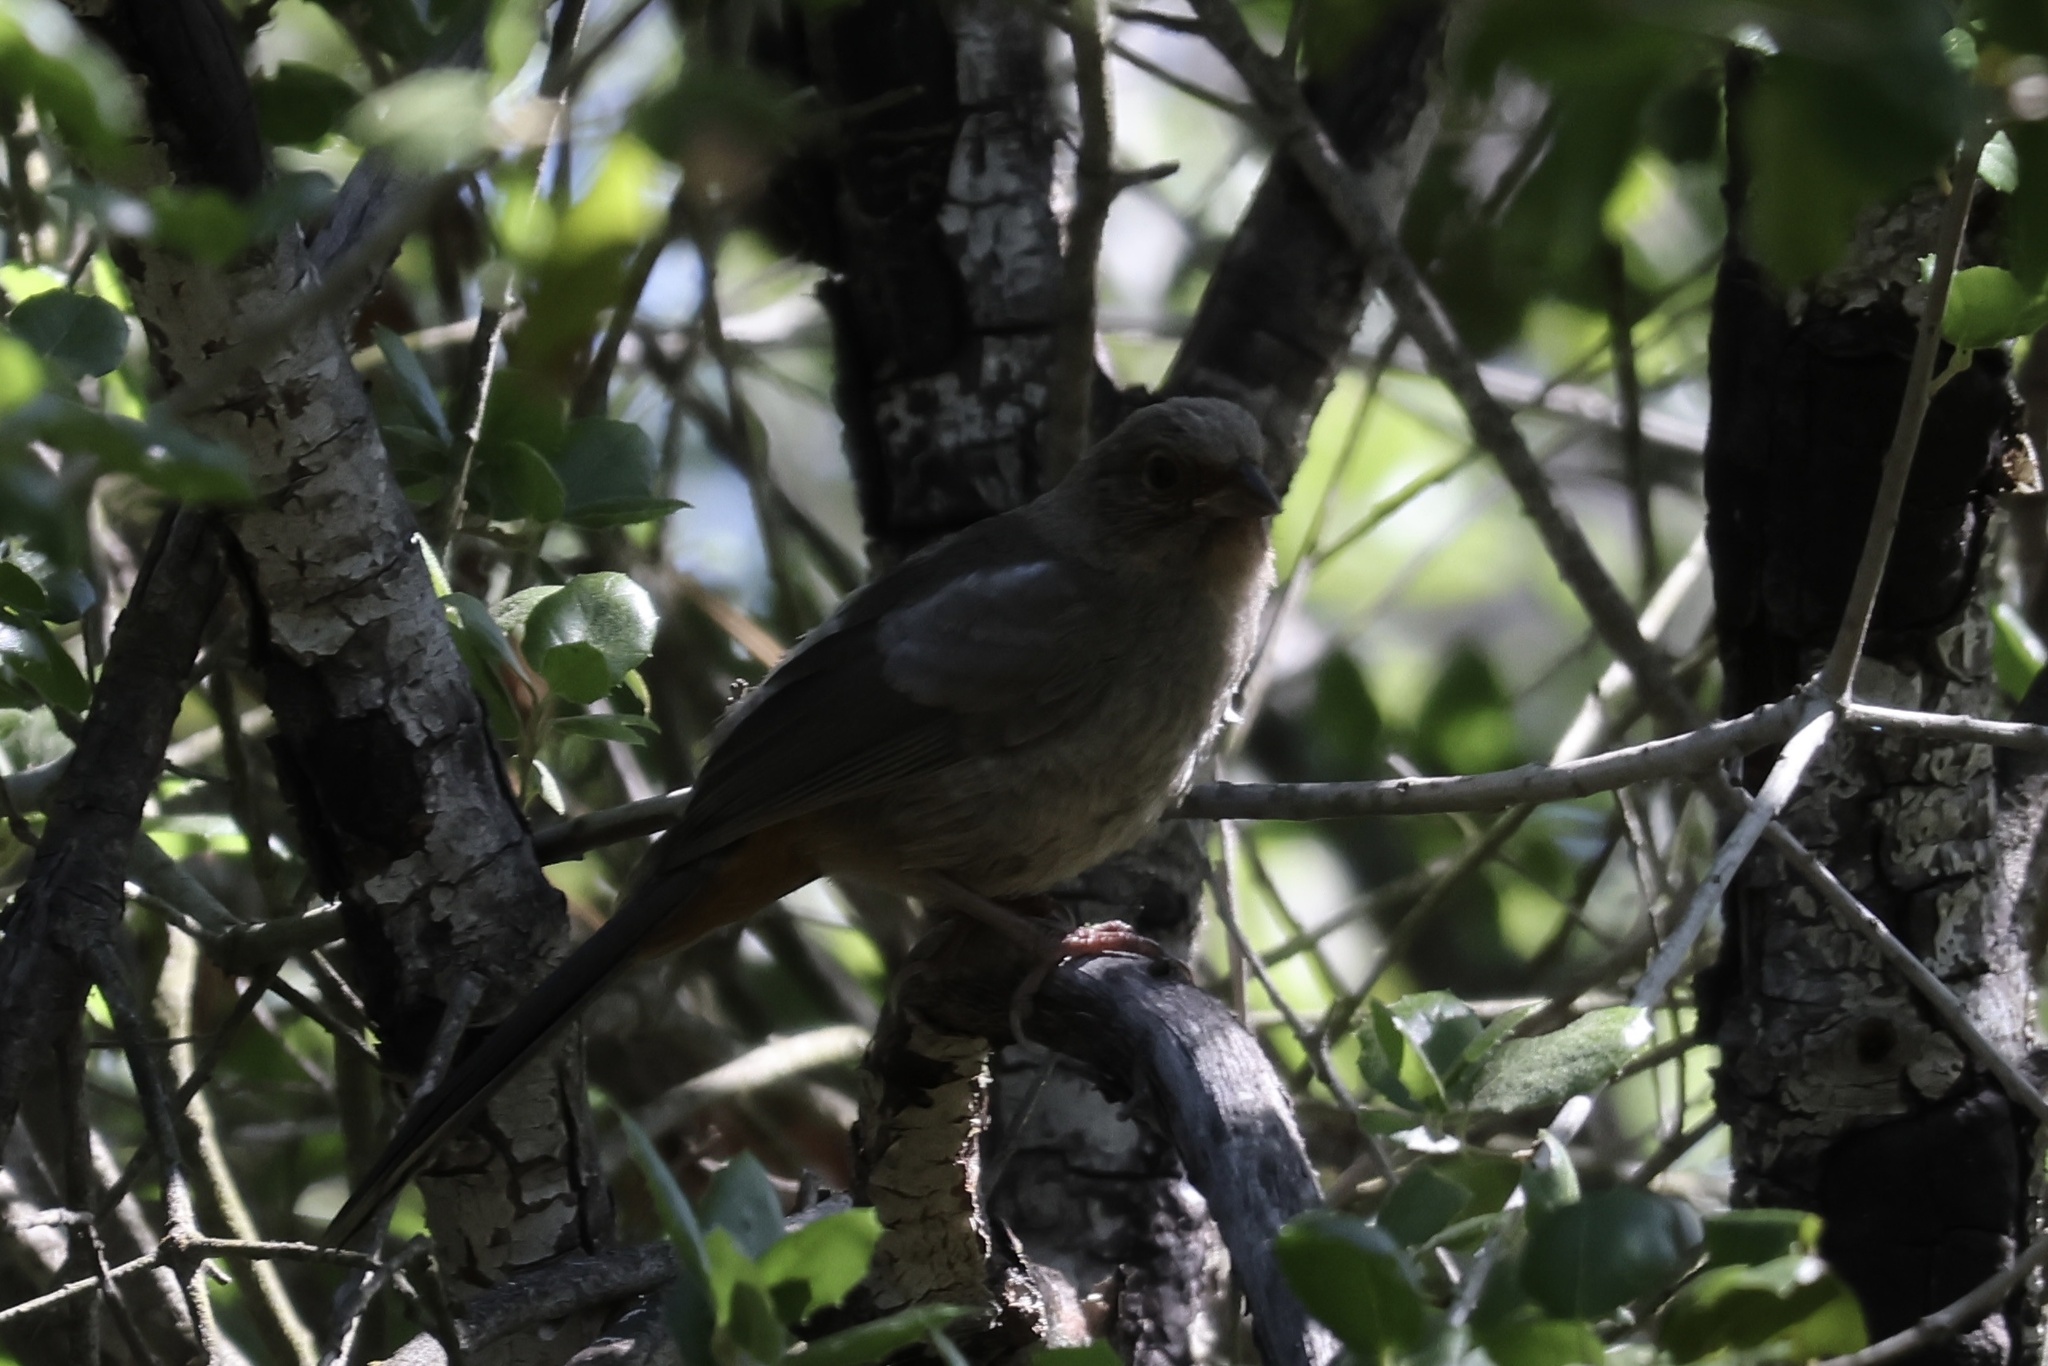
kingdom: Animalia
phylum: Chordata
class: Aves
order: Passeriformes
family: Passerellidae
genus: Melozone
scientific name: Melozone crissalis
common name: California towhee
